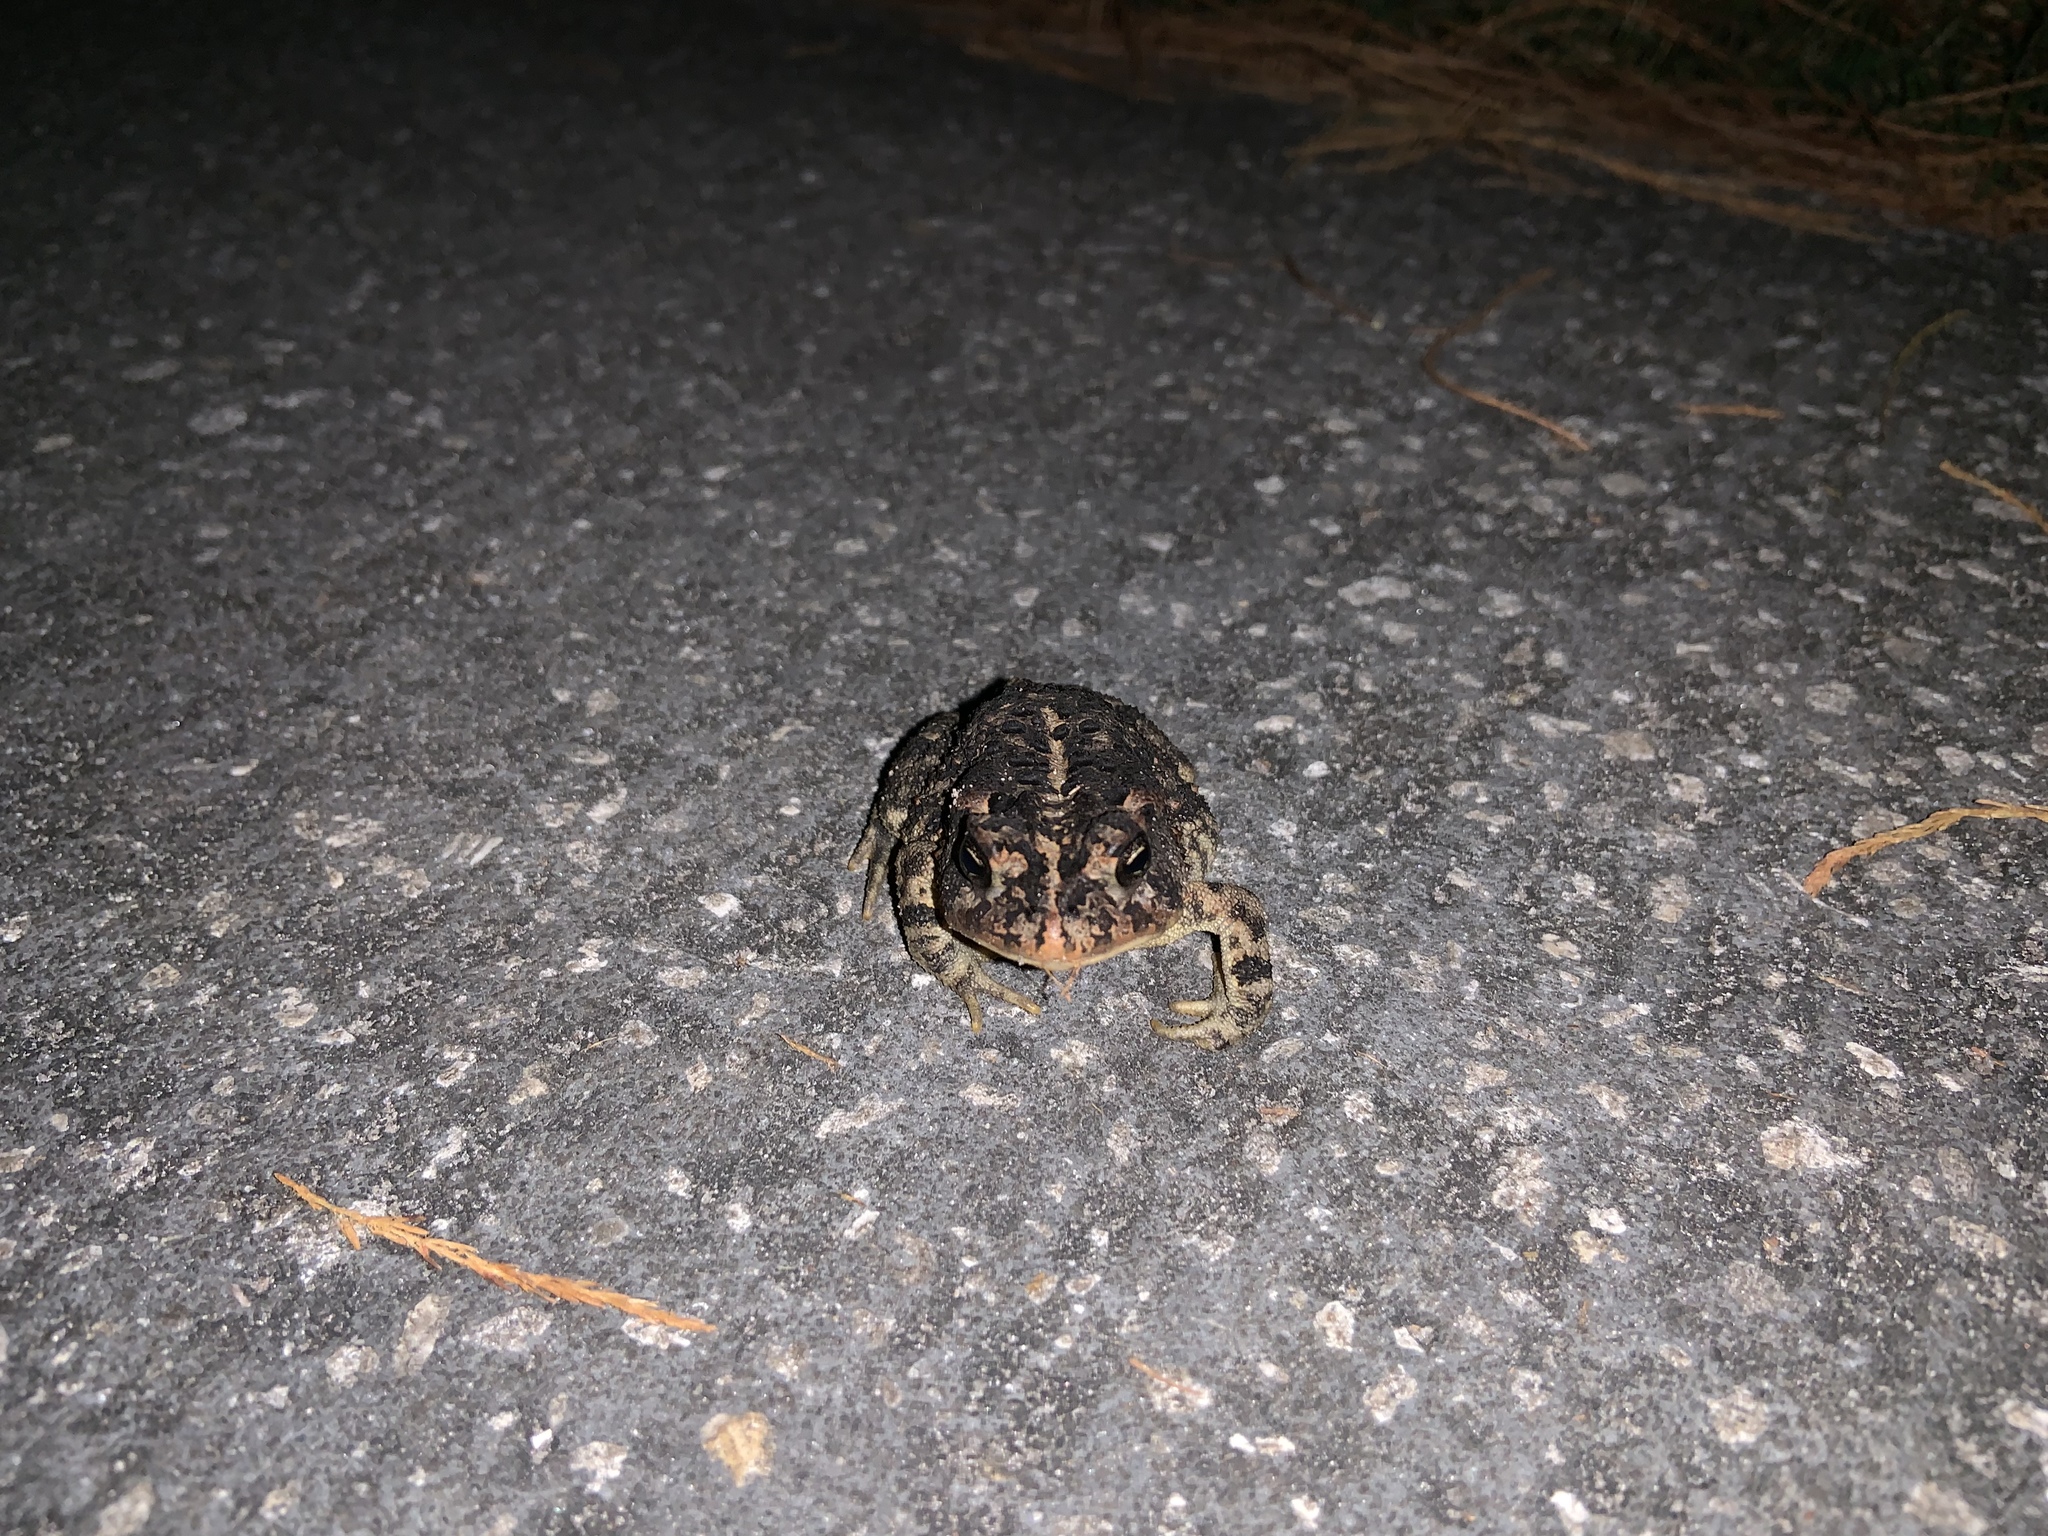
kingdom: Animalia
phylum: Chordata
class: Amphibia
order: Anura
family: Bufonidae
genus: Anaxyrus
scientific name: Anaxyrus terrestris
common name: Southern toad
